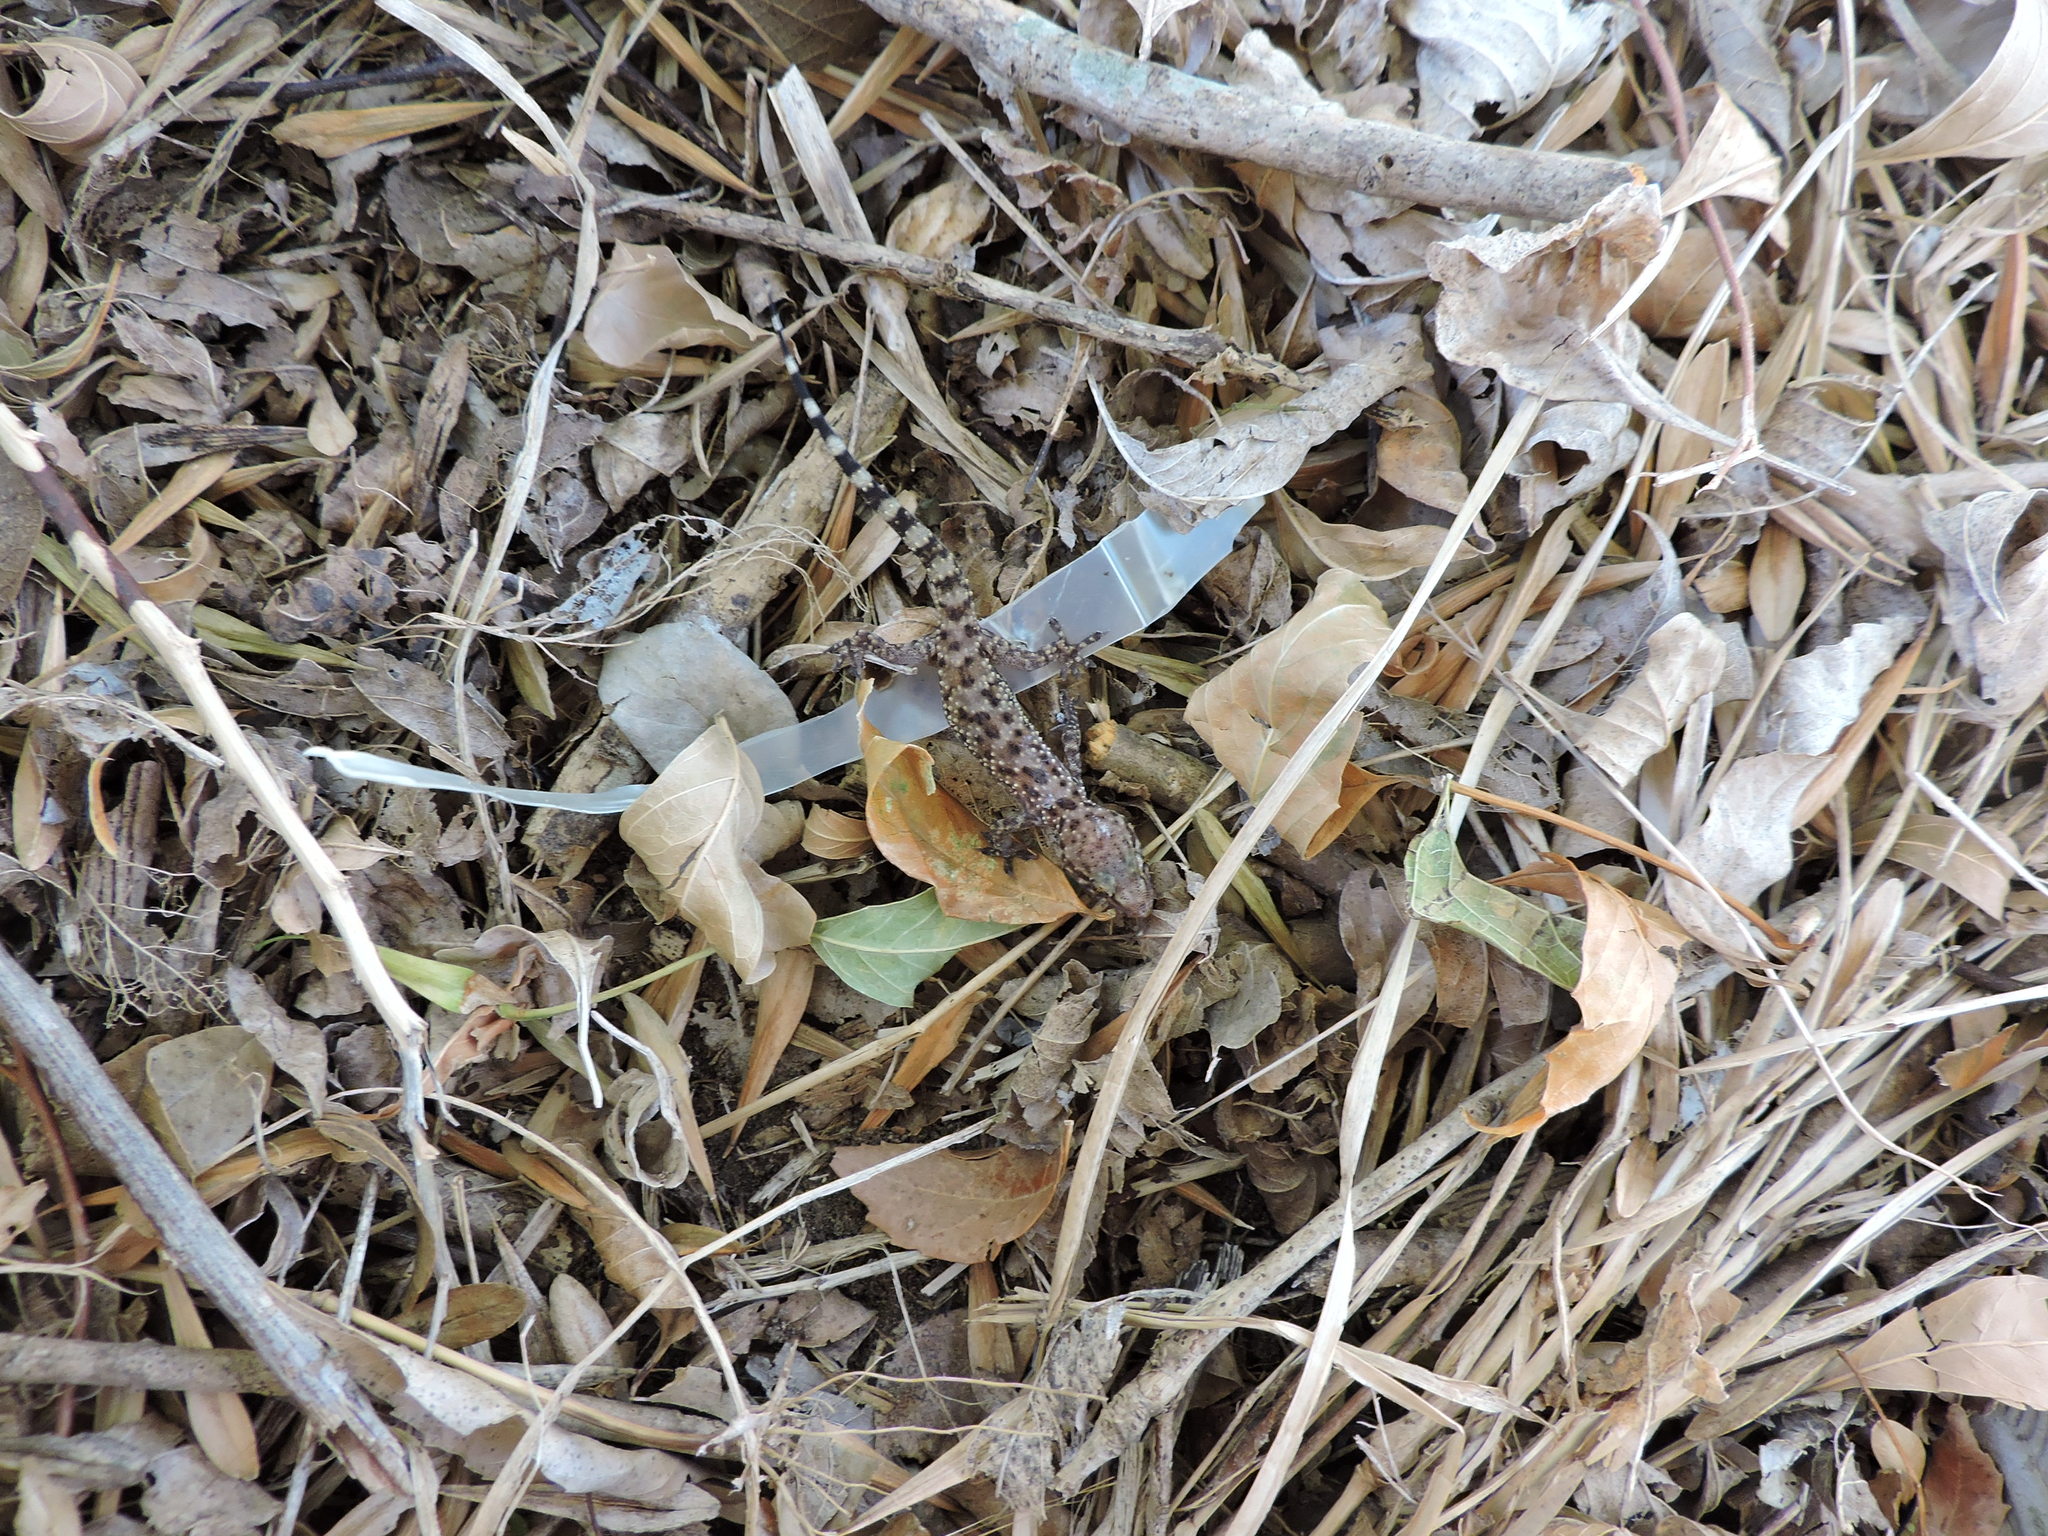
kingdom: Animalia
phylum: Chordata
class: Squamata
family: Gekkonidae
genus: Hemidactylus
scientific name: Hemidactylus turcicus
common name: Turkish gecko
